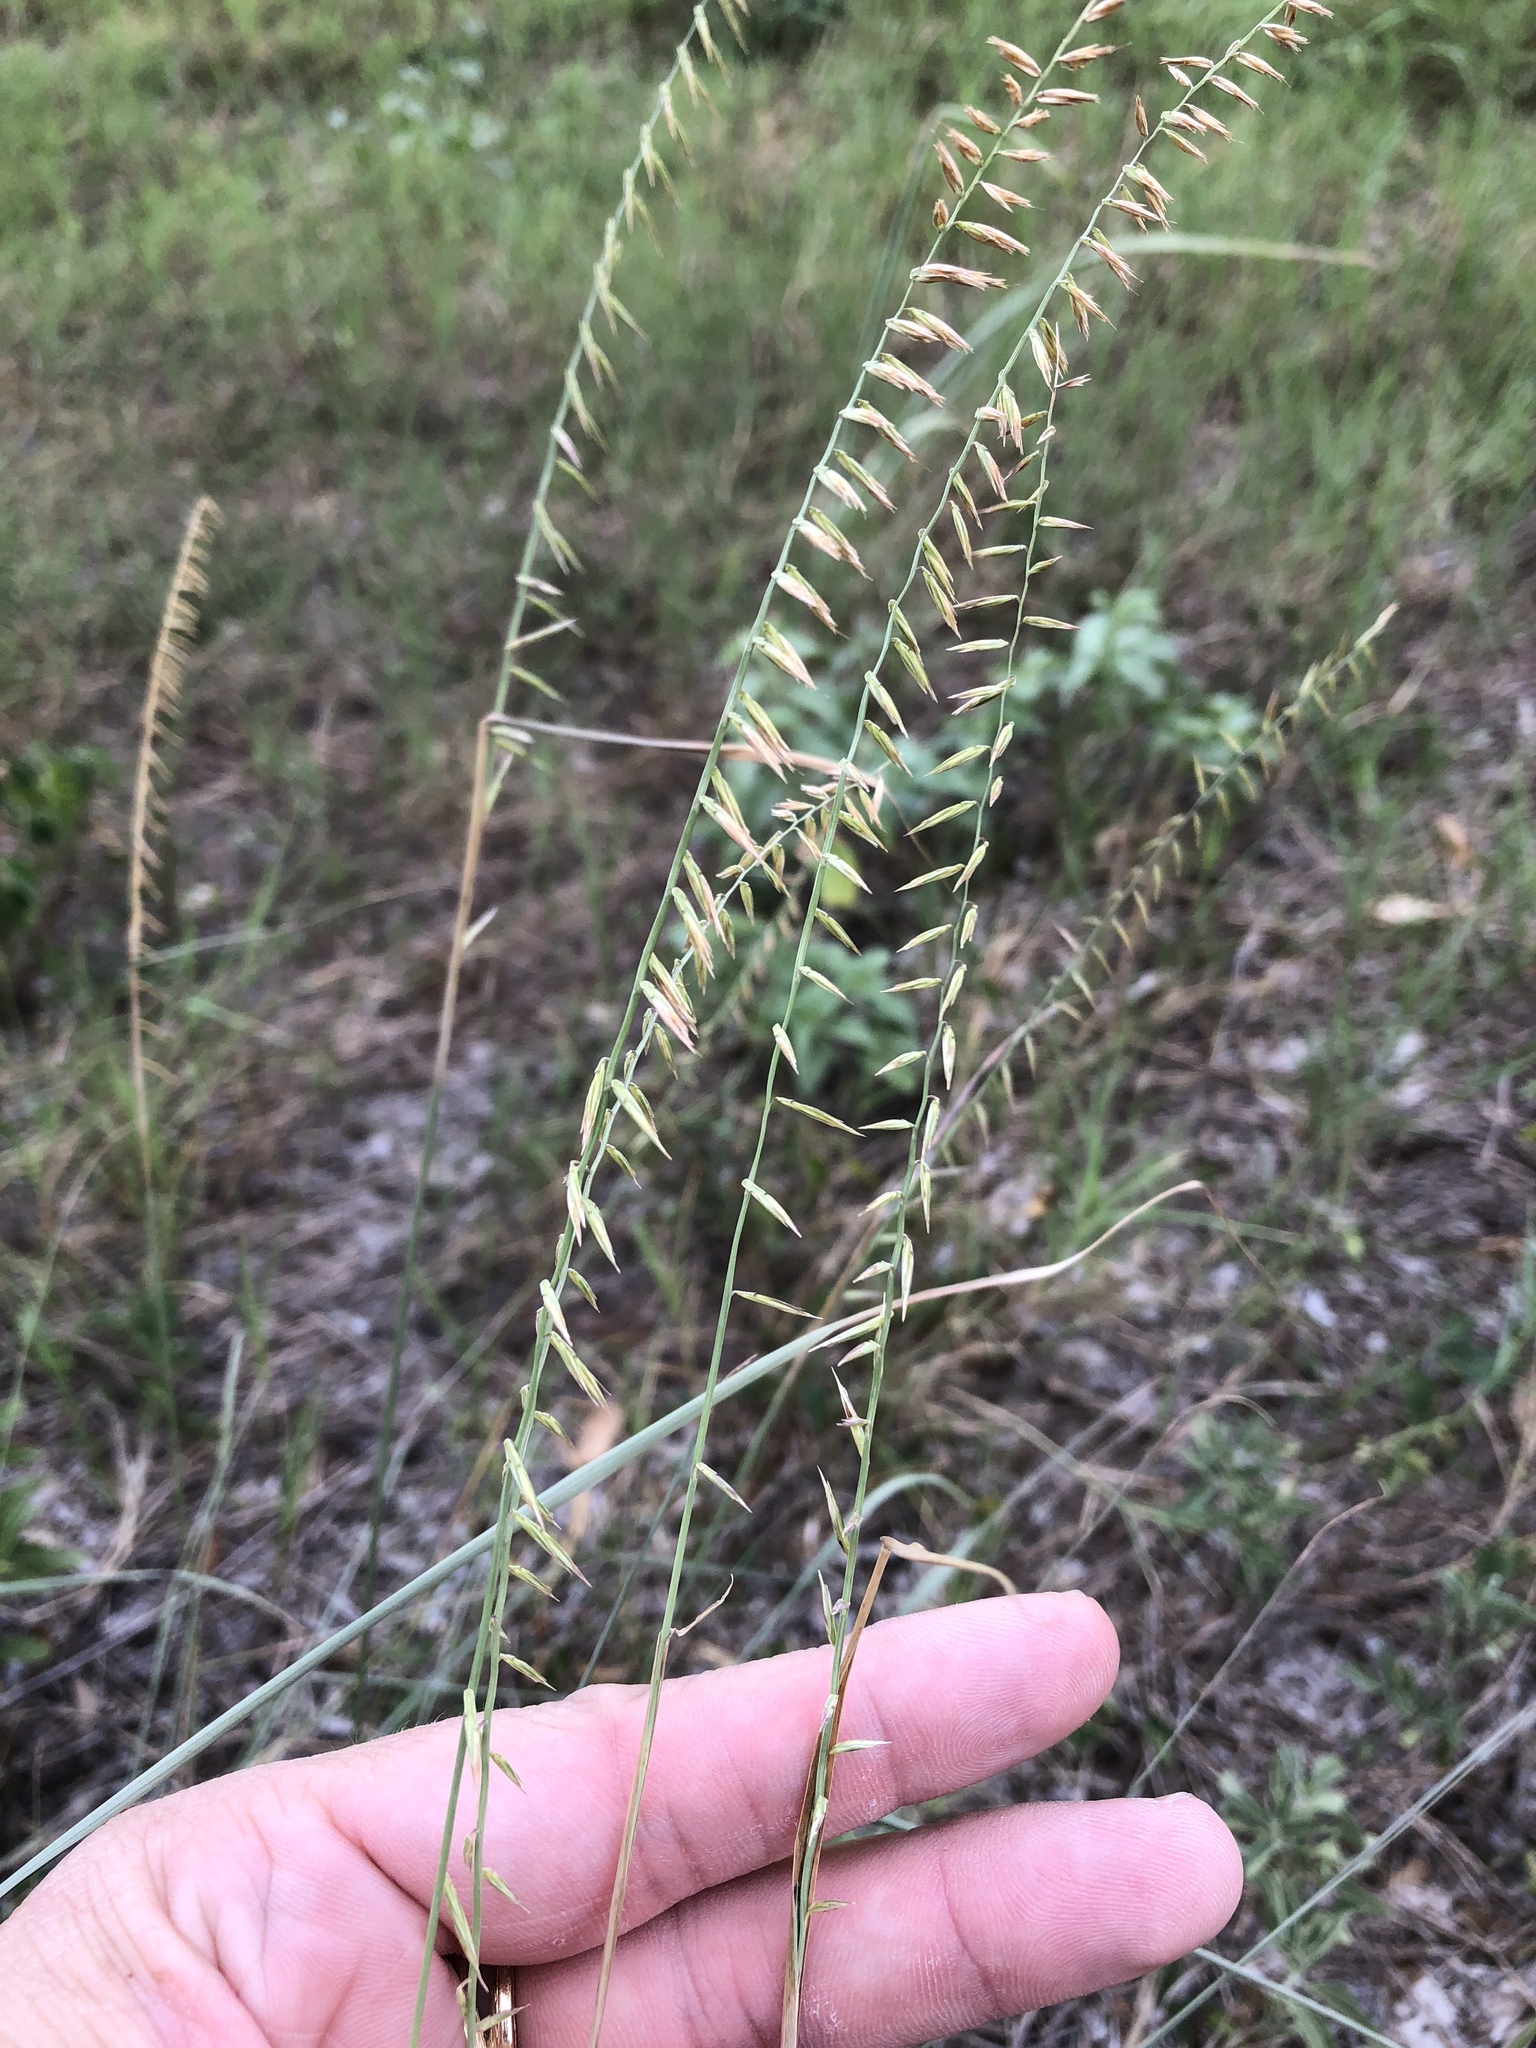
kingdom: Plantae
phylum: Tracheophyta
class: Liliopsida
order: Poales
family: Poaceae
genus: Bouteloua
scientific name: Bouteloua curtipendula
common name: Side-oats grama
